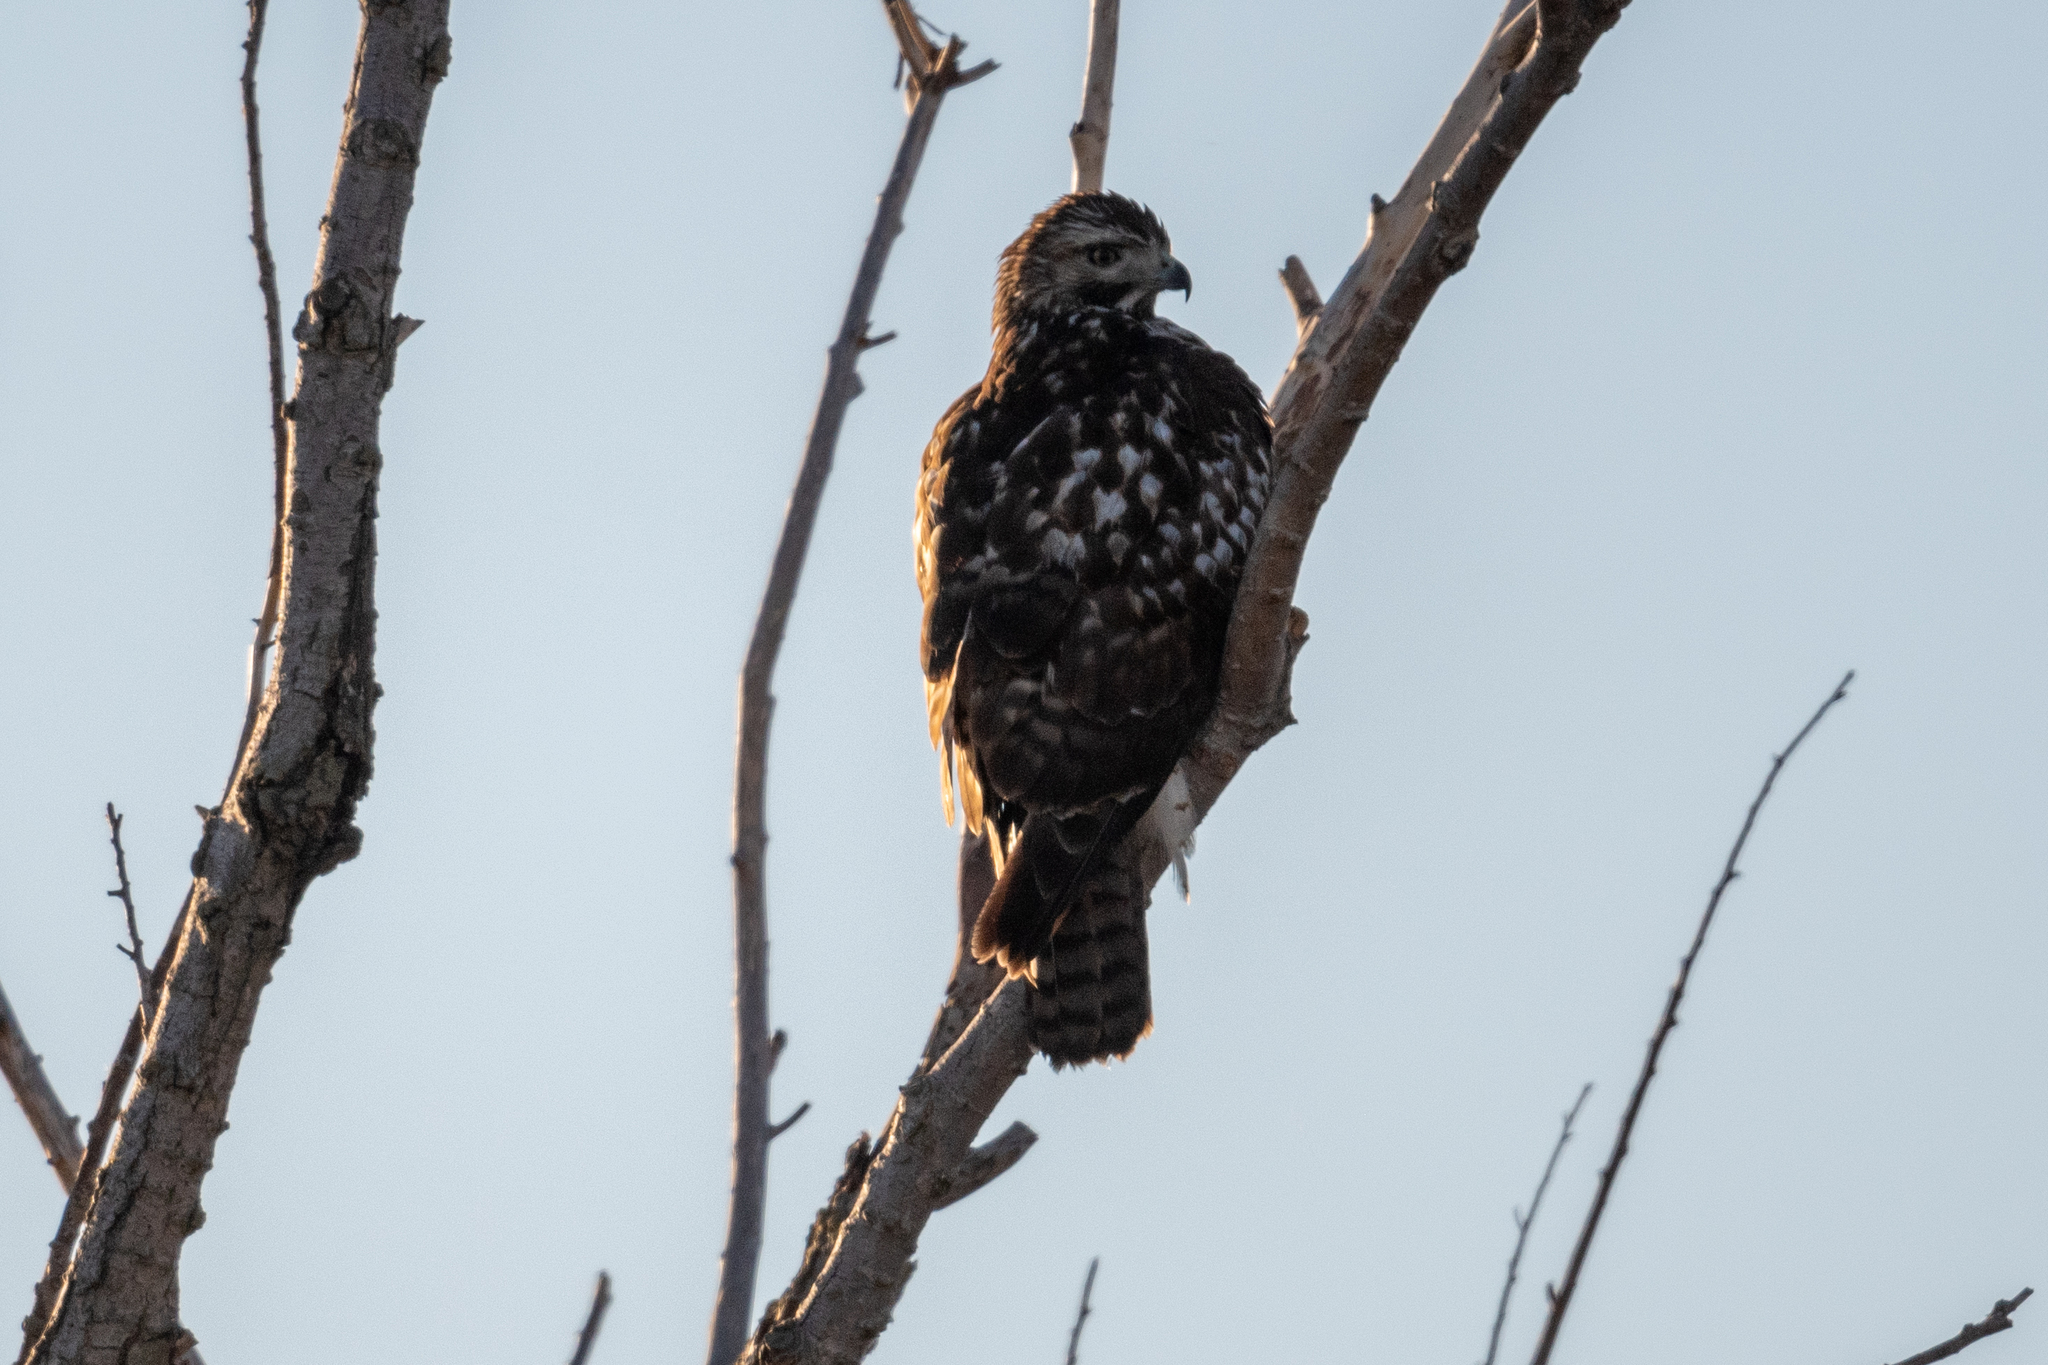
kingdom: Animalia
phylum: Chordata
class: Aves
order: Accipitriformes
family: Accipitridae
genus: Buteo
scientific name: Buteo jamaicensis
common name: Red-tailed hawk
